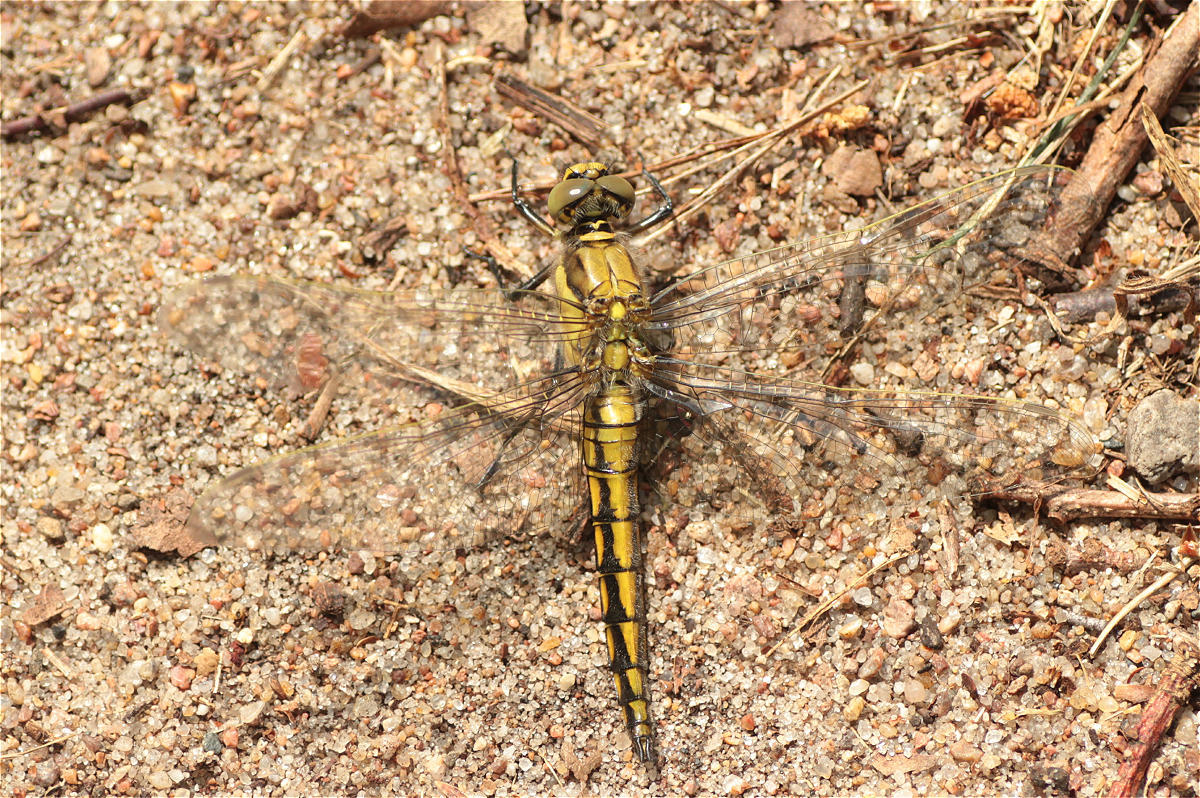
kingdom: Animalia
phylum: Arthropoda
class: Insecta
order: Odonata
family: Libellulidae
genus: Orthetrum
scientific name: Orthetrum cancellatum
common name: Black-tailed skimmer
